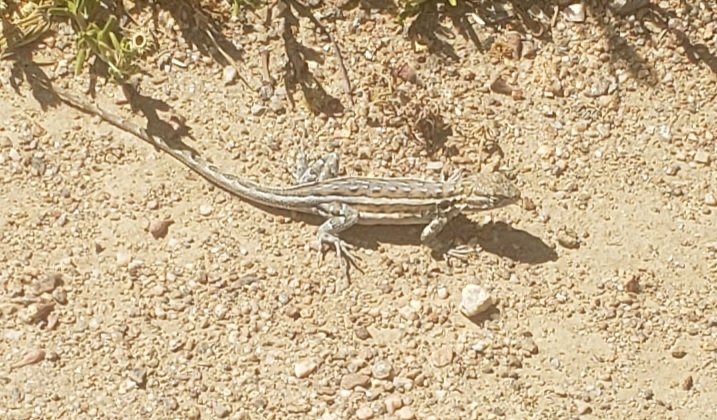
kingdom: Animalia
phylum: Chordata
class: Squamata
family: Phrynosomatidae
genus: Uta
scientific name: Uta stansburiana
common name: Side-blotched lizard
